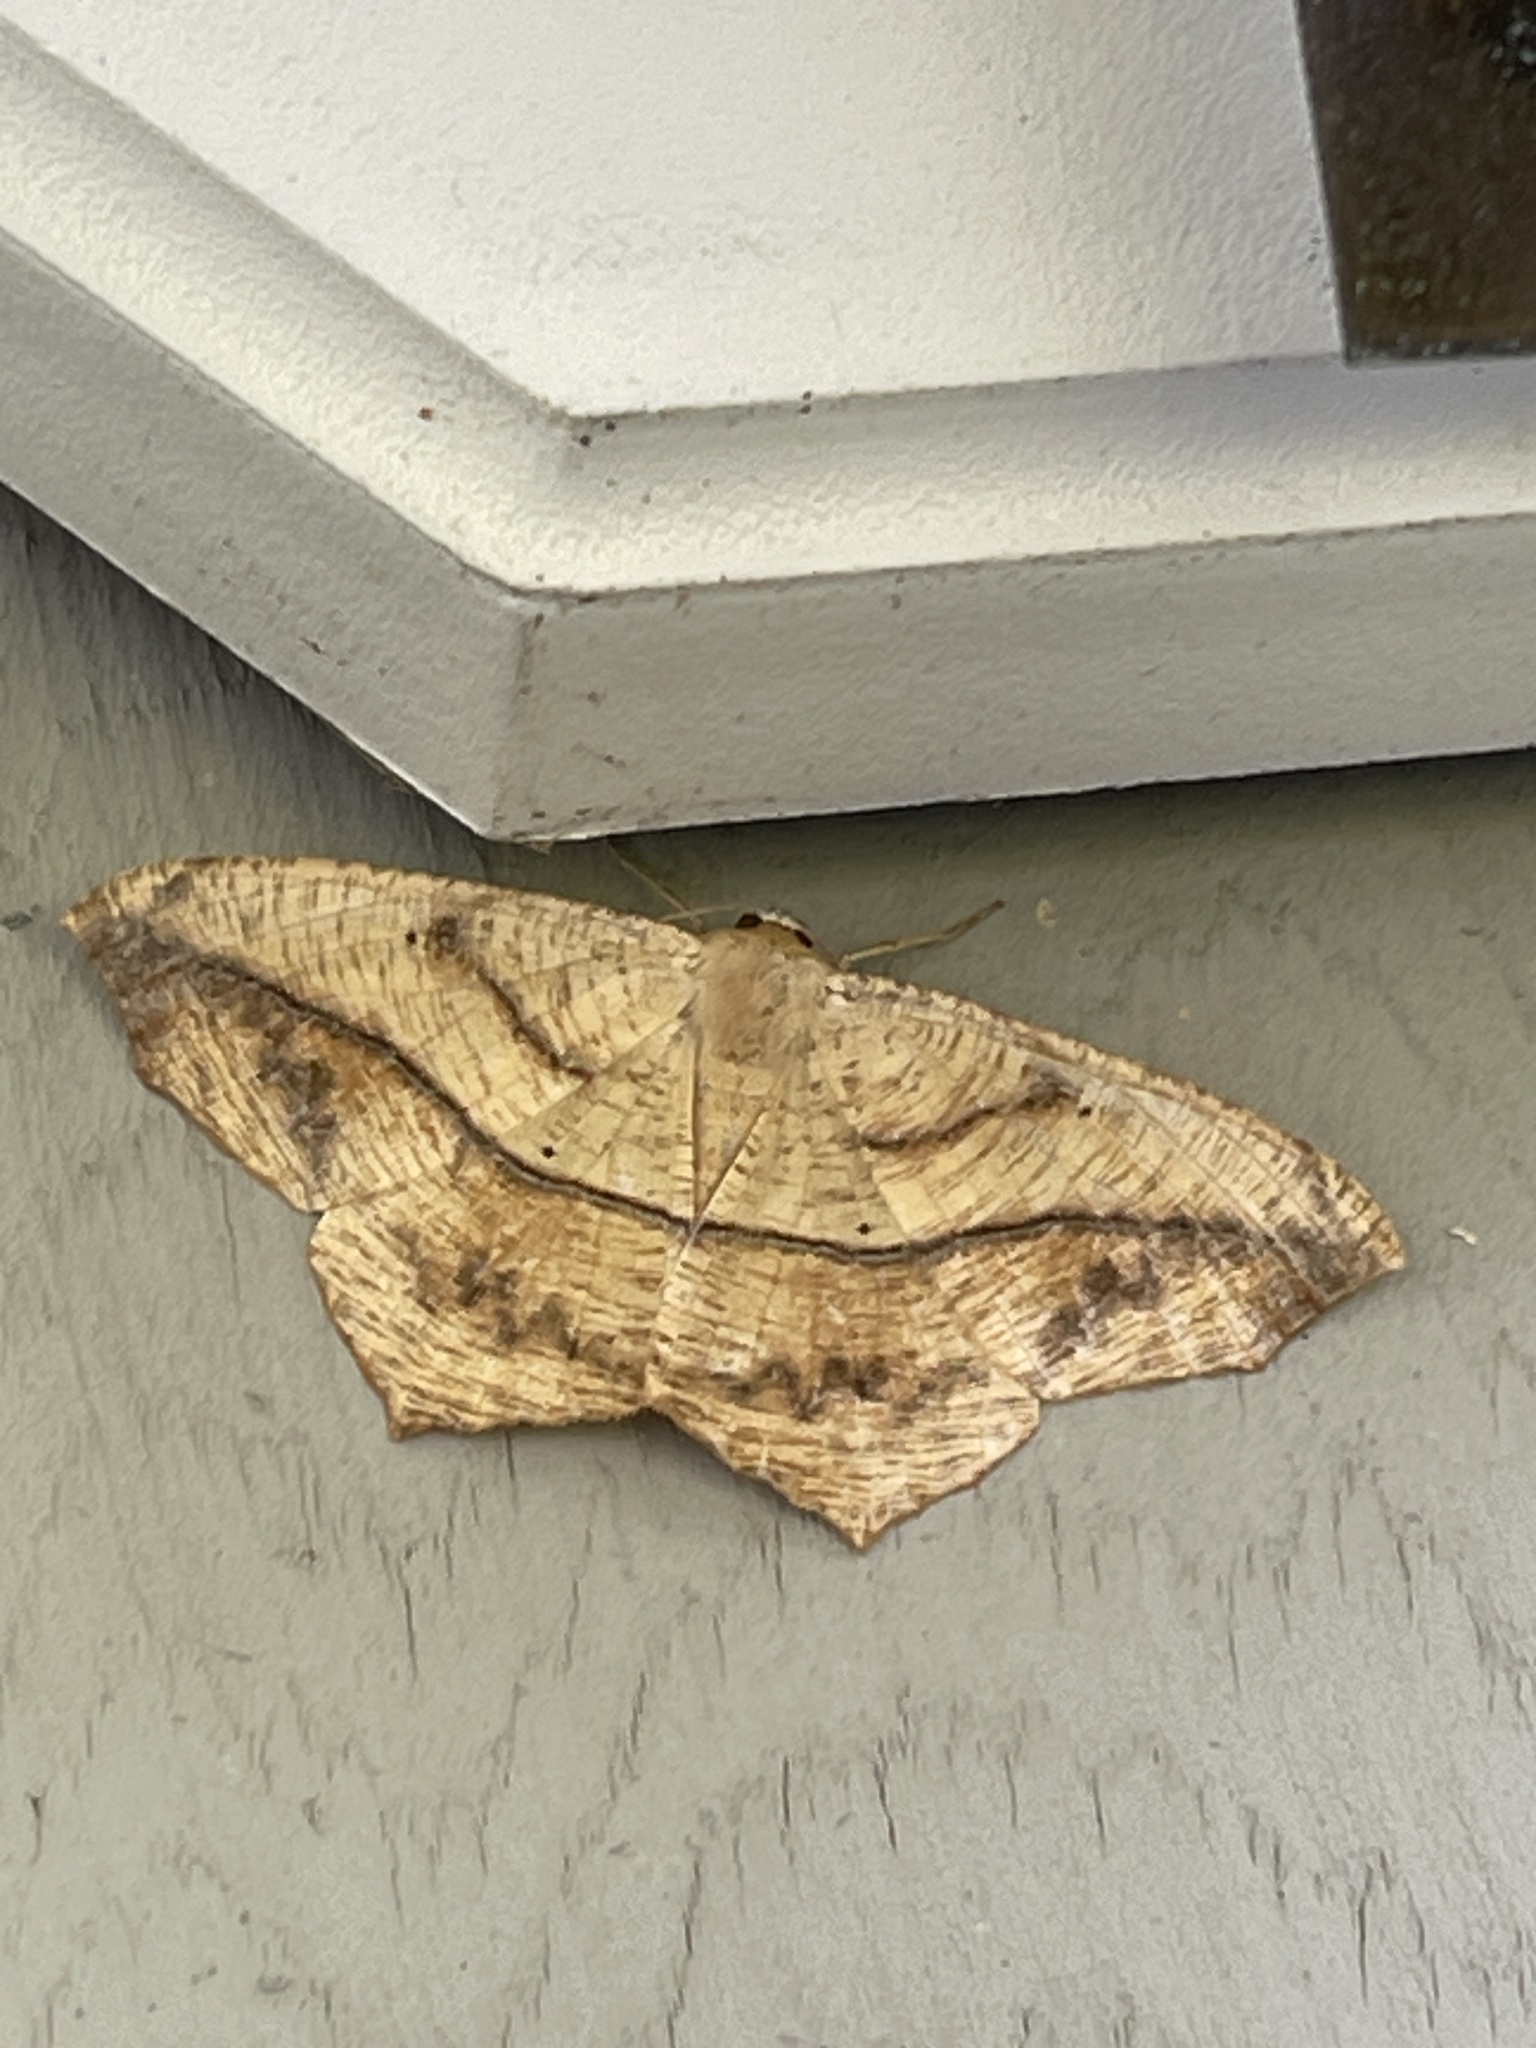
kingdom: Animalia
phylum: Arthropoda
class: Insecta
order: Lepidoptera
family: Geometridae
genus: Prochoerodes
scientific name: Prochoerodes lineola
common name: Large maple spanworm
